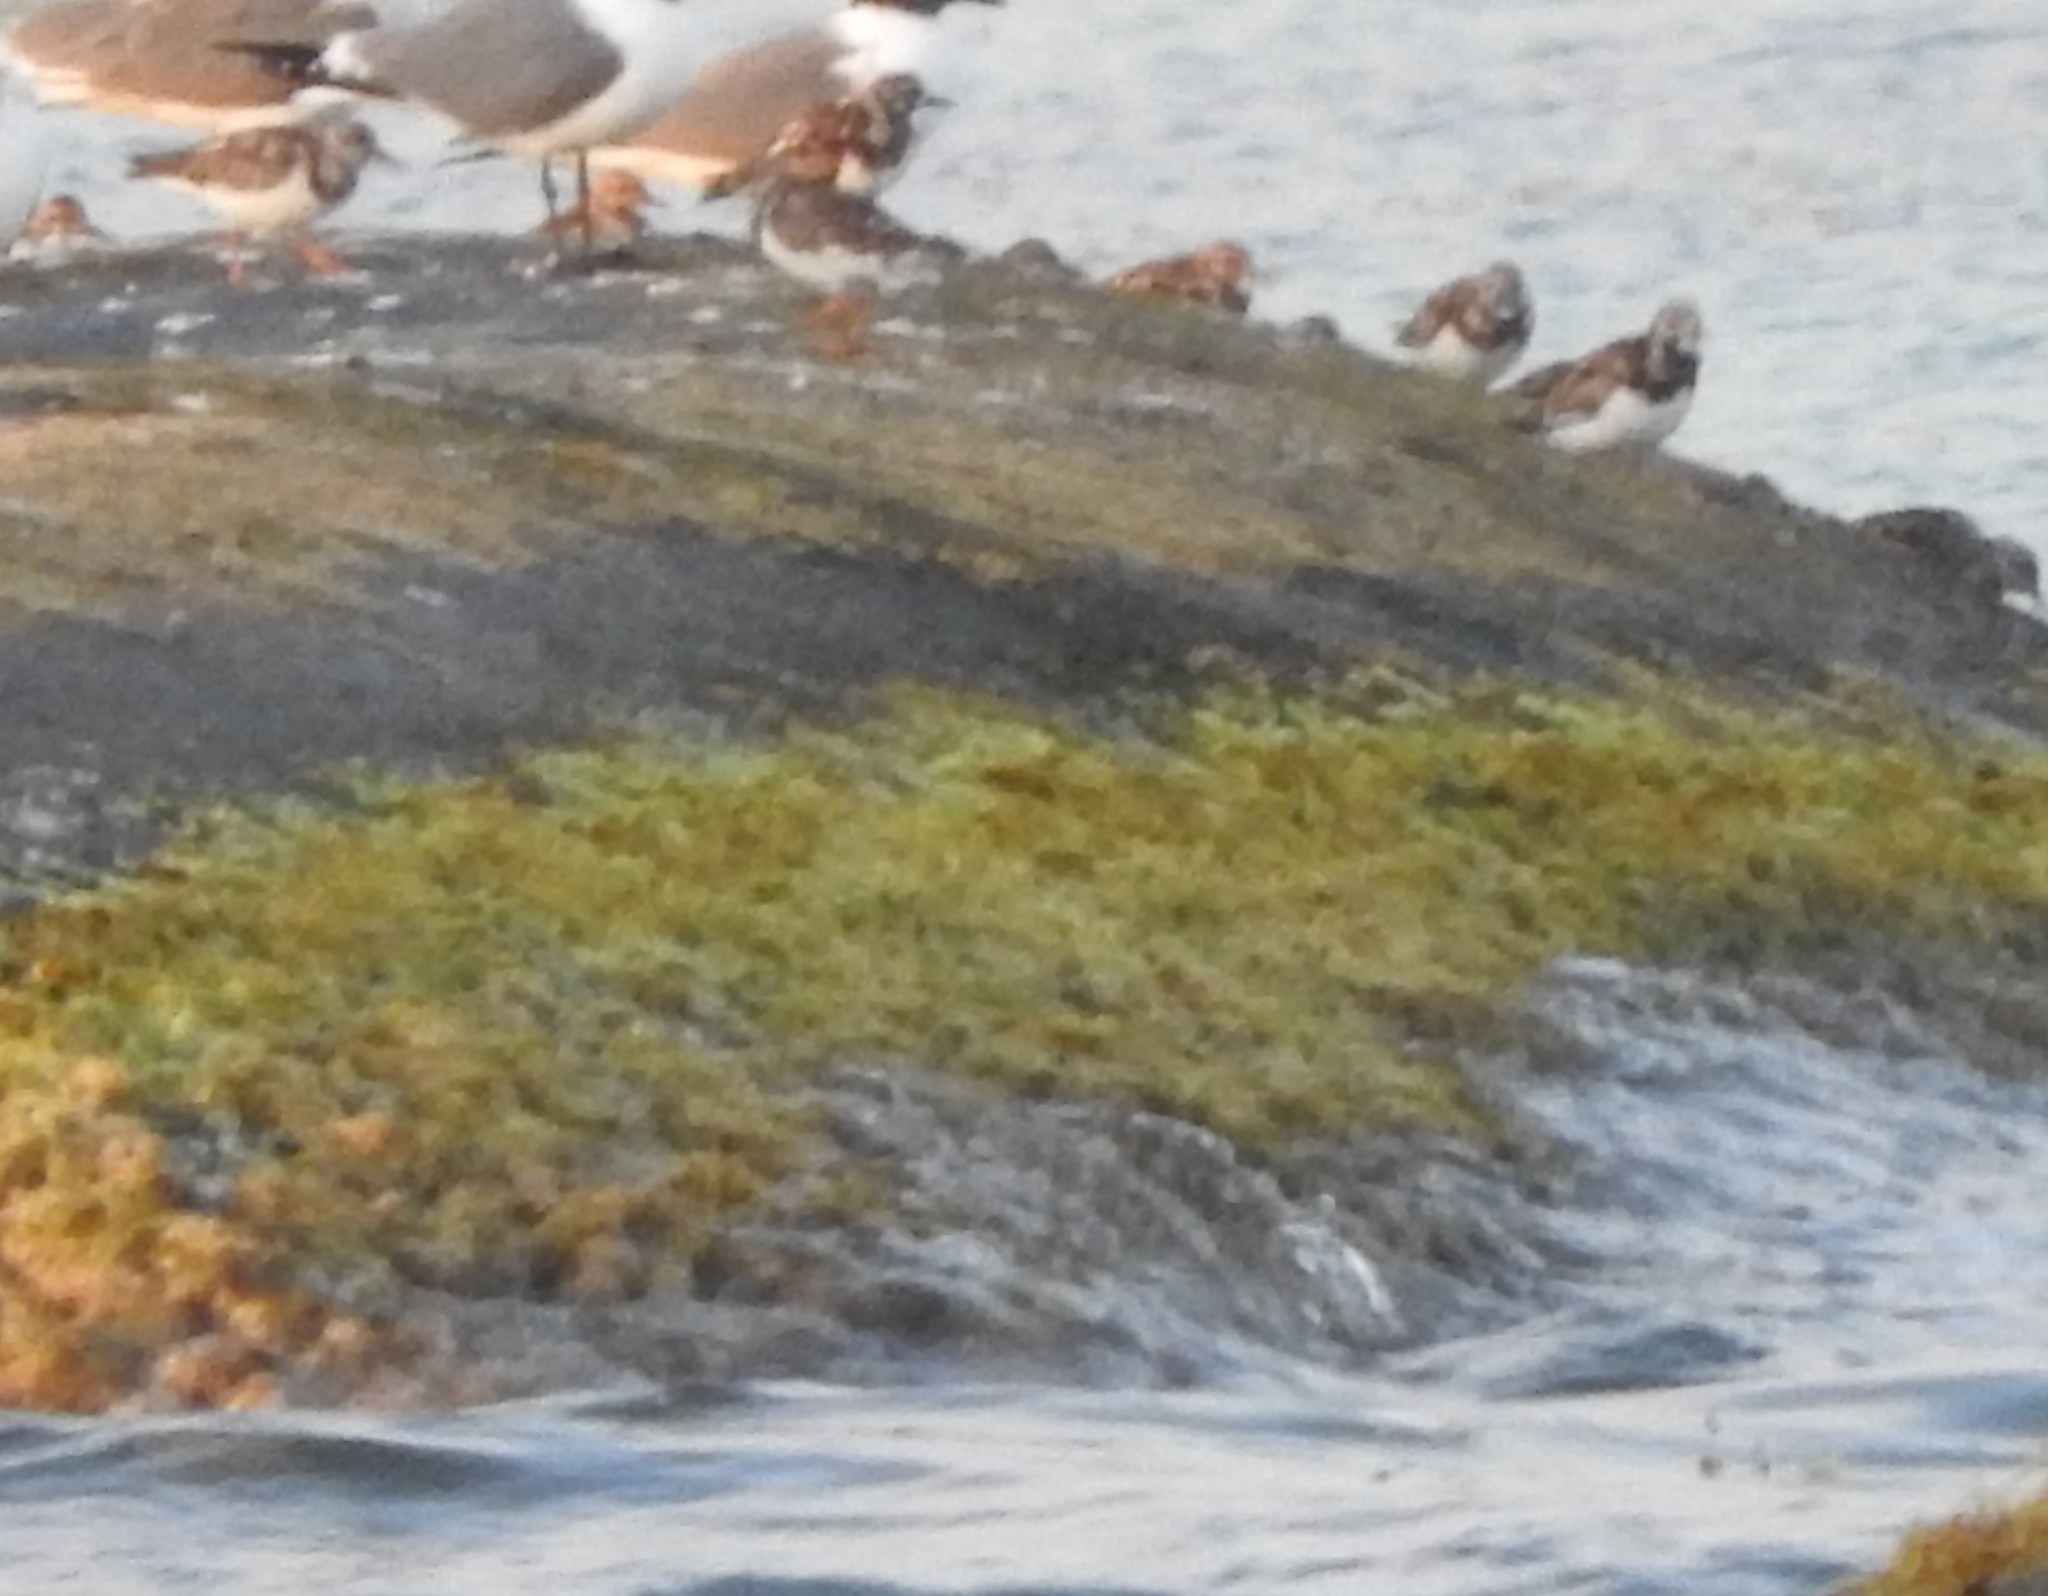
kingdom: Animalia
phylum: Chordata
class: Aves
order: Charadriiformes
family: Scolopacidae
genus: Arenaria
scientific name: Arenaria interpres
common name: Ruddy turnstone
